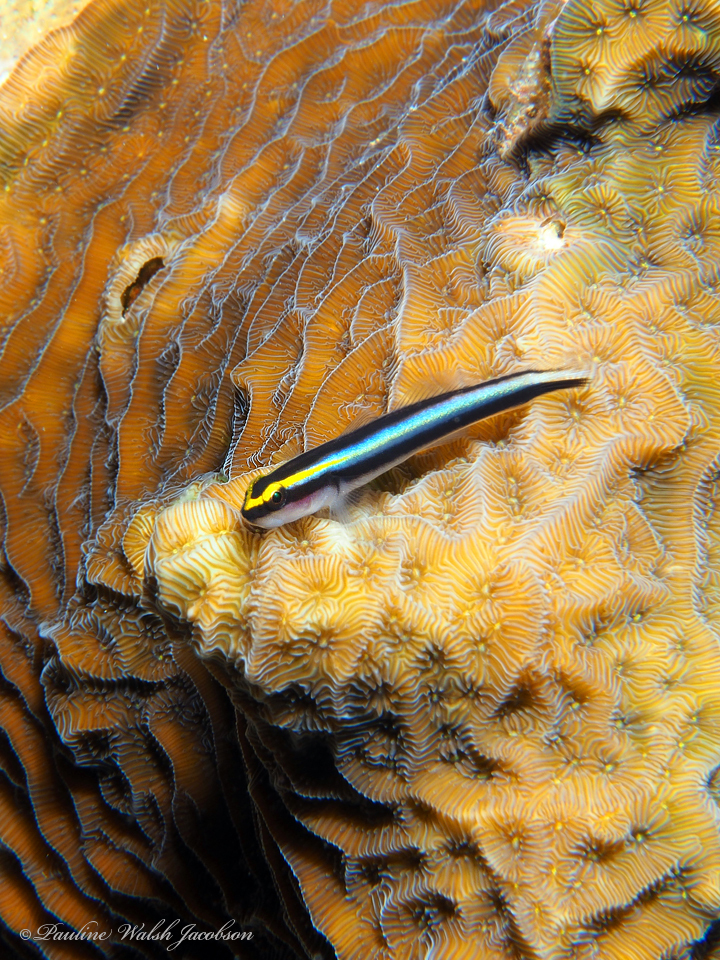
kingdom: Animalia
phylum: Chordata
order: Perciformes
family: Gobiidae
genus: Elacatinus
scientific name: Elacatinus evelynae
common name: Sharknose goby
